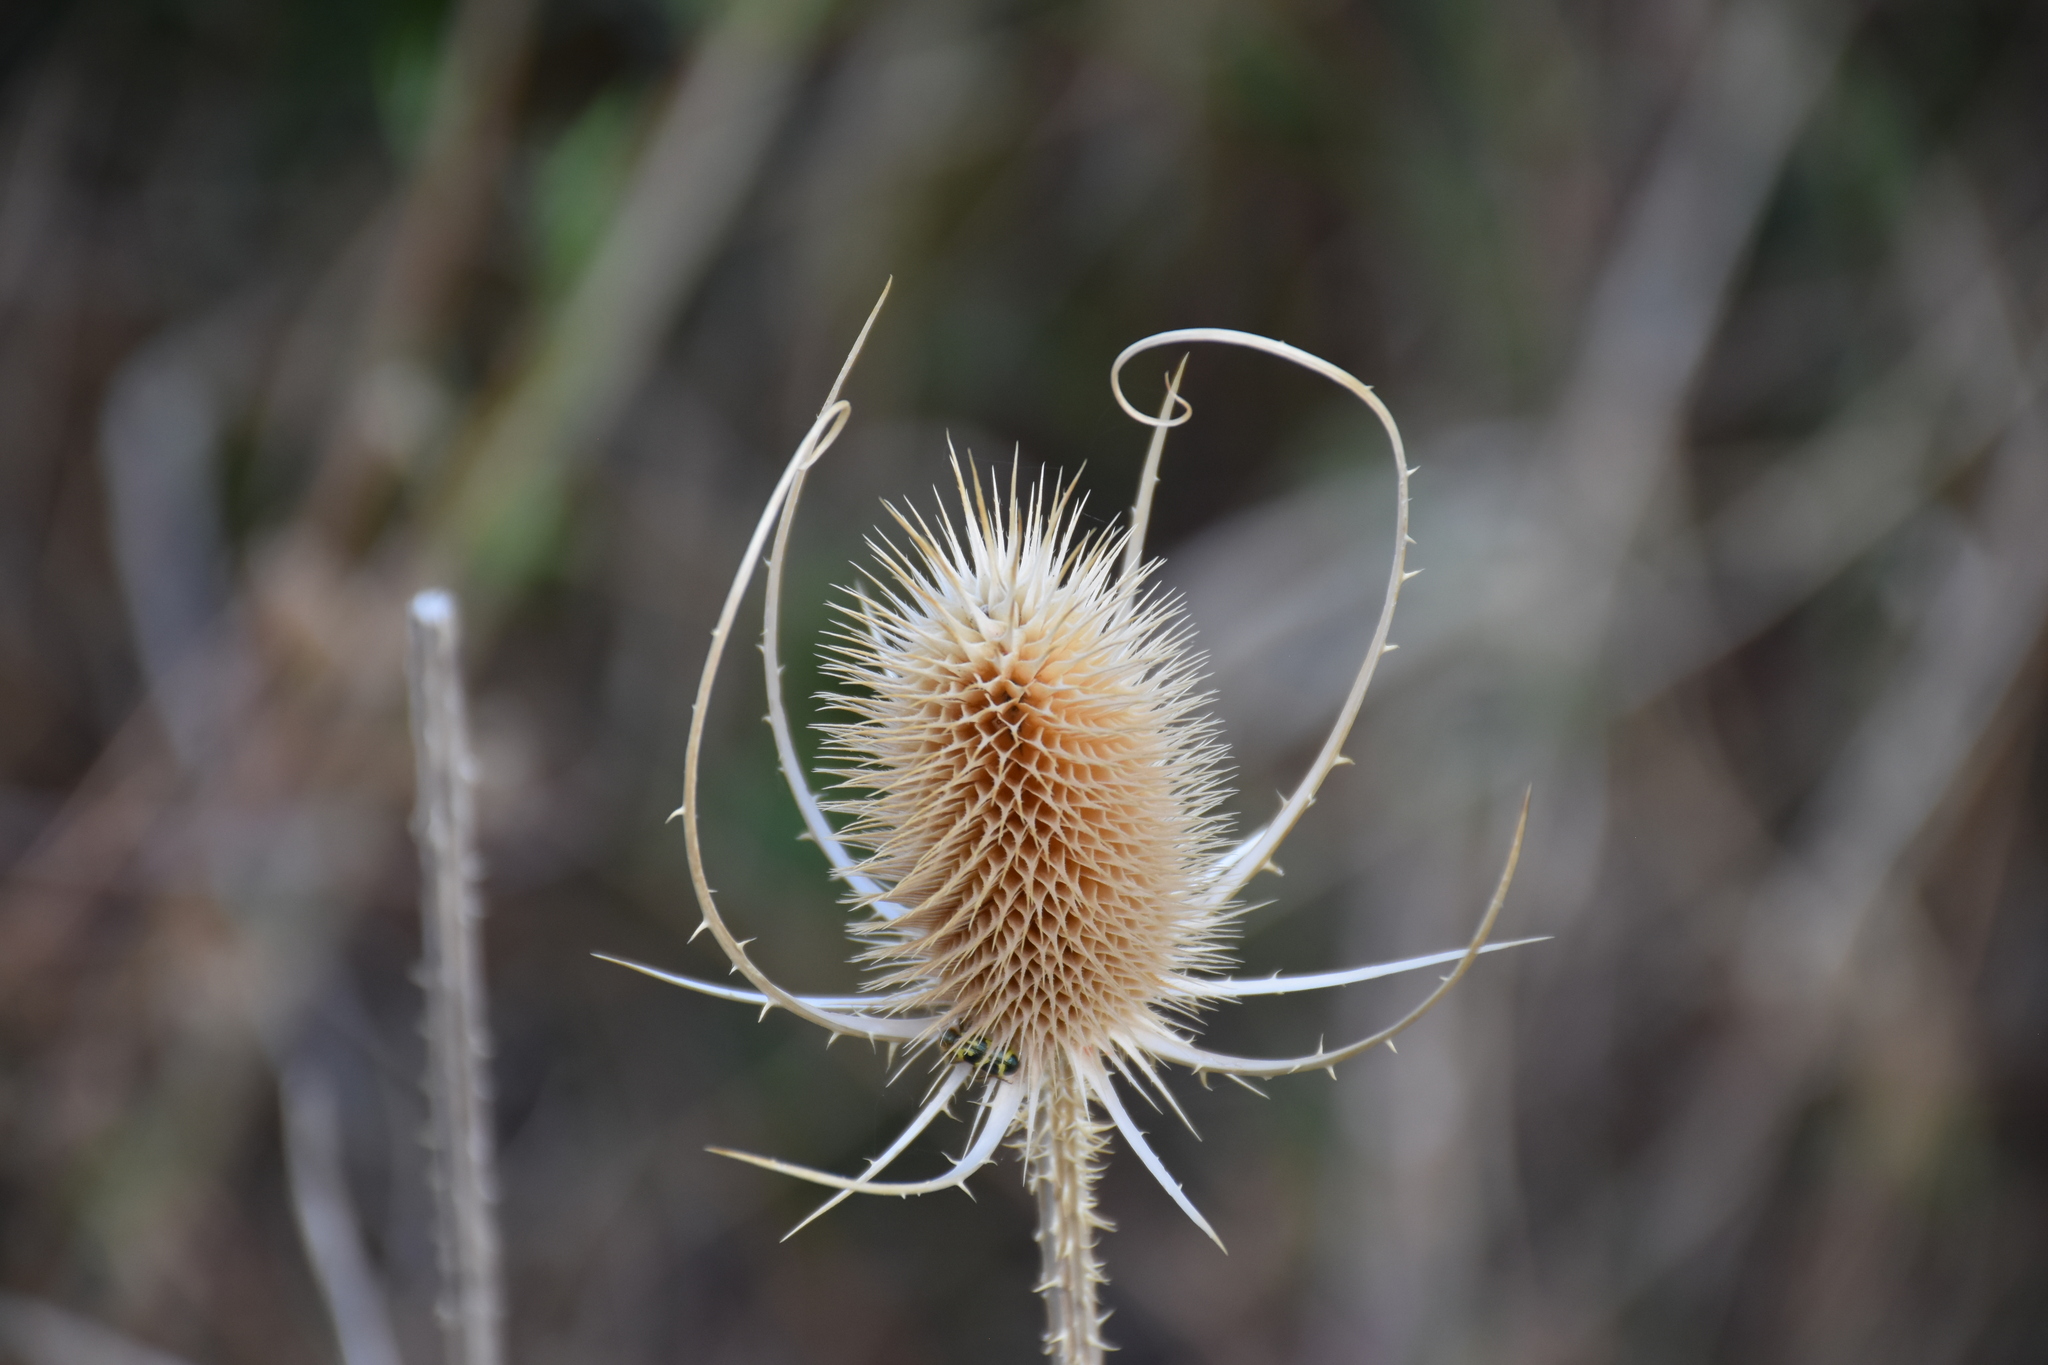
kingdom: Plantae
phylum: Tracheophyta
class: Magnoliopsida
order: Dipsacales
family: Caprifoliaceae
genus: Dipsacus
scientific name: Dipsacus fullonum
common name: Teasel
